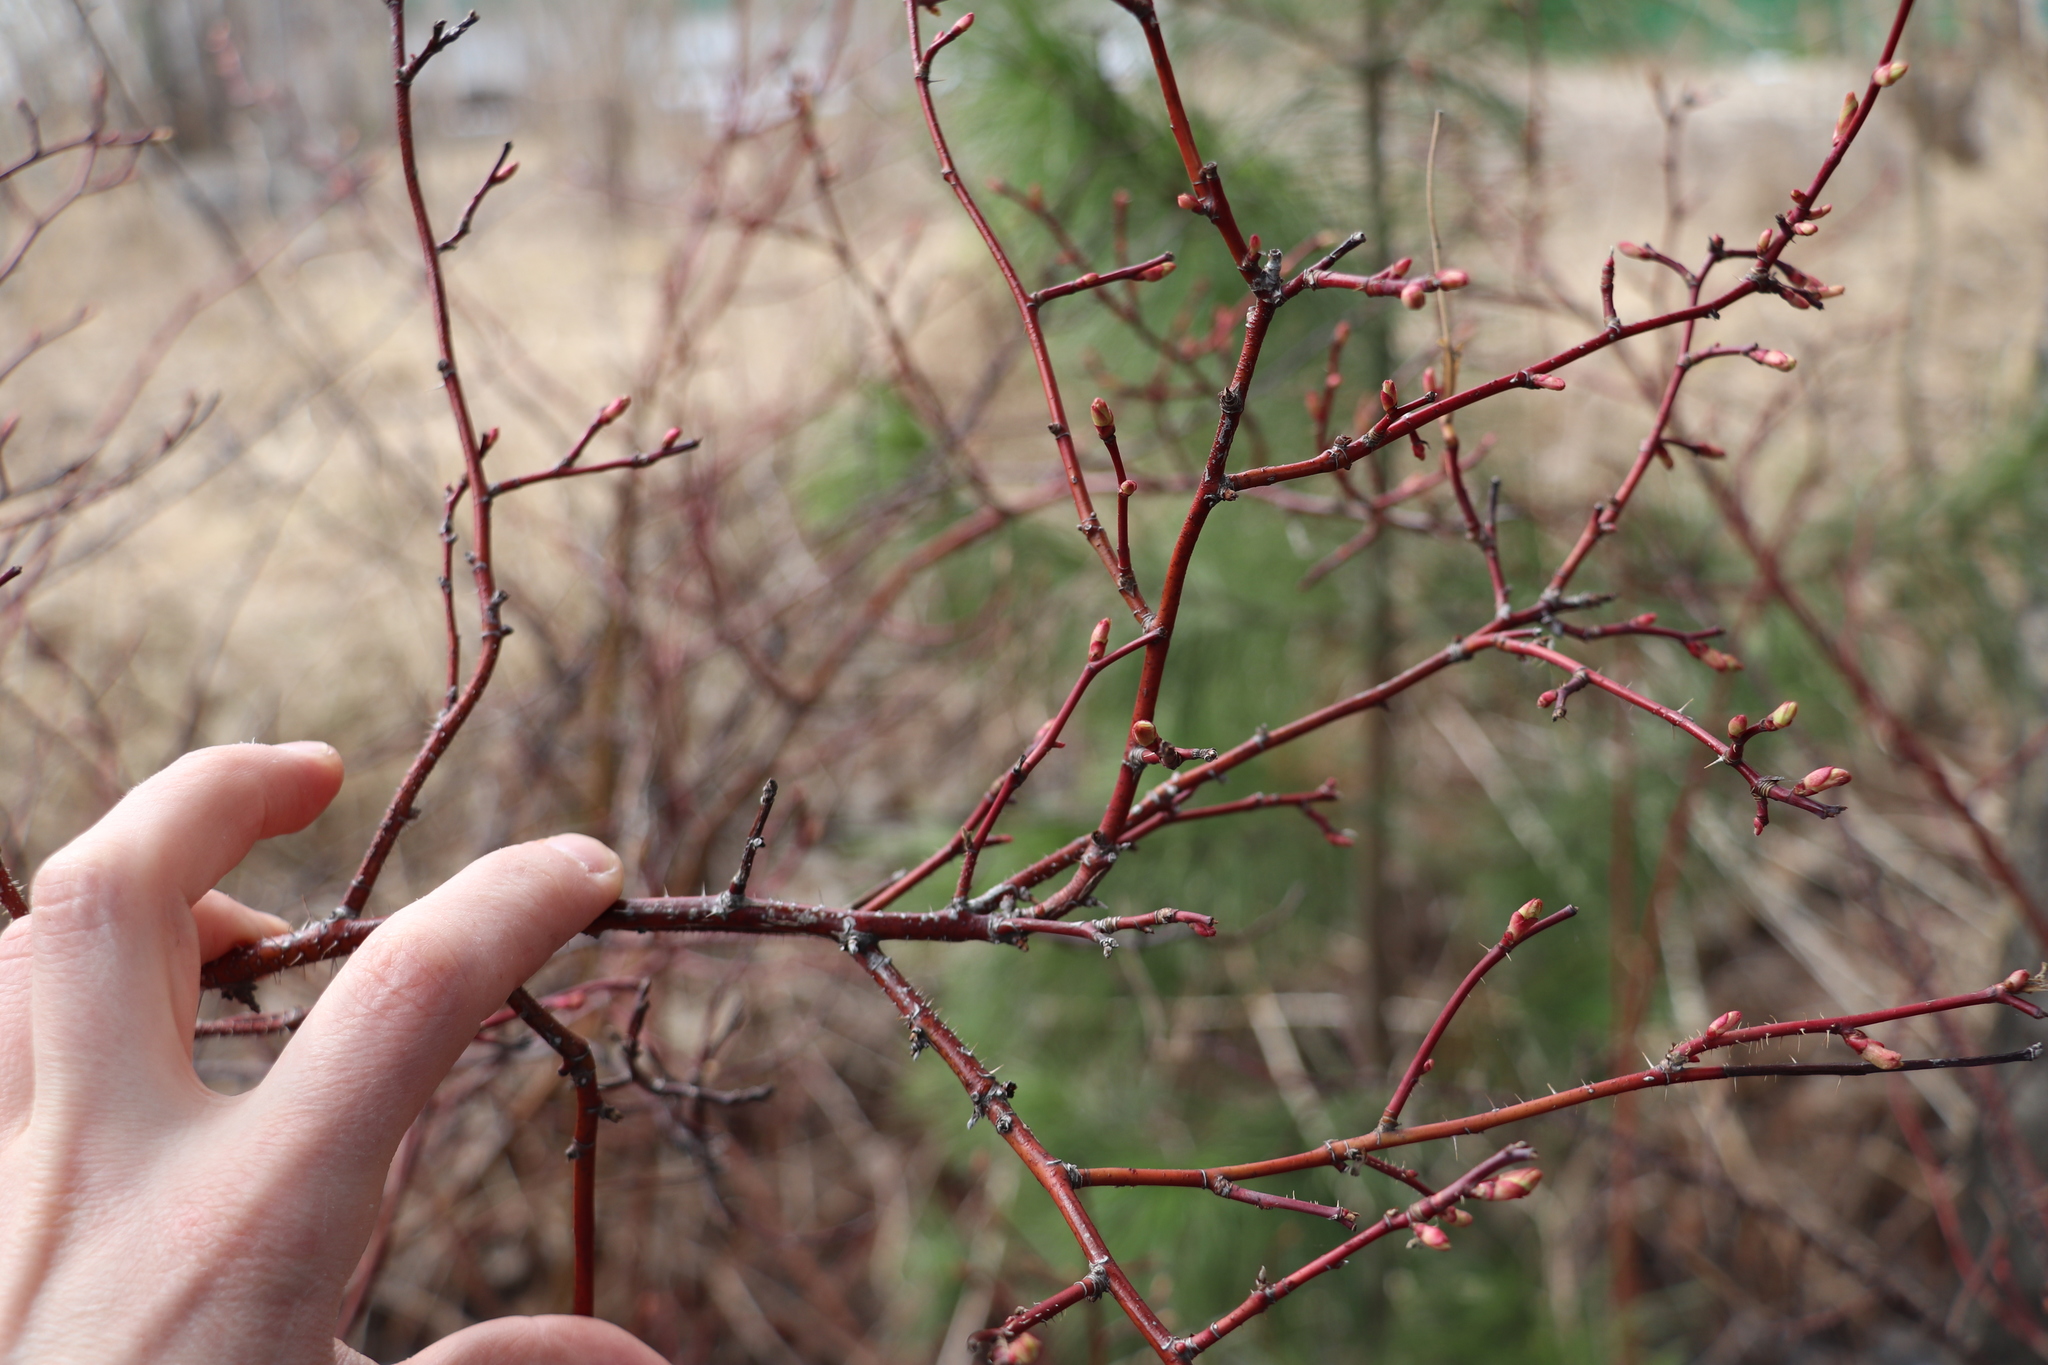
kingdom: Plantae
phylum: Tracheophyta
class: Magnoliopsida
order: Rosales
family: Rosaceae
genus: Rosa
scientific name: Rosa acicularis
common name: Prickly rose
